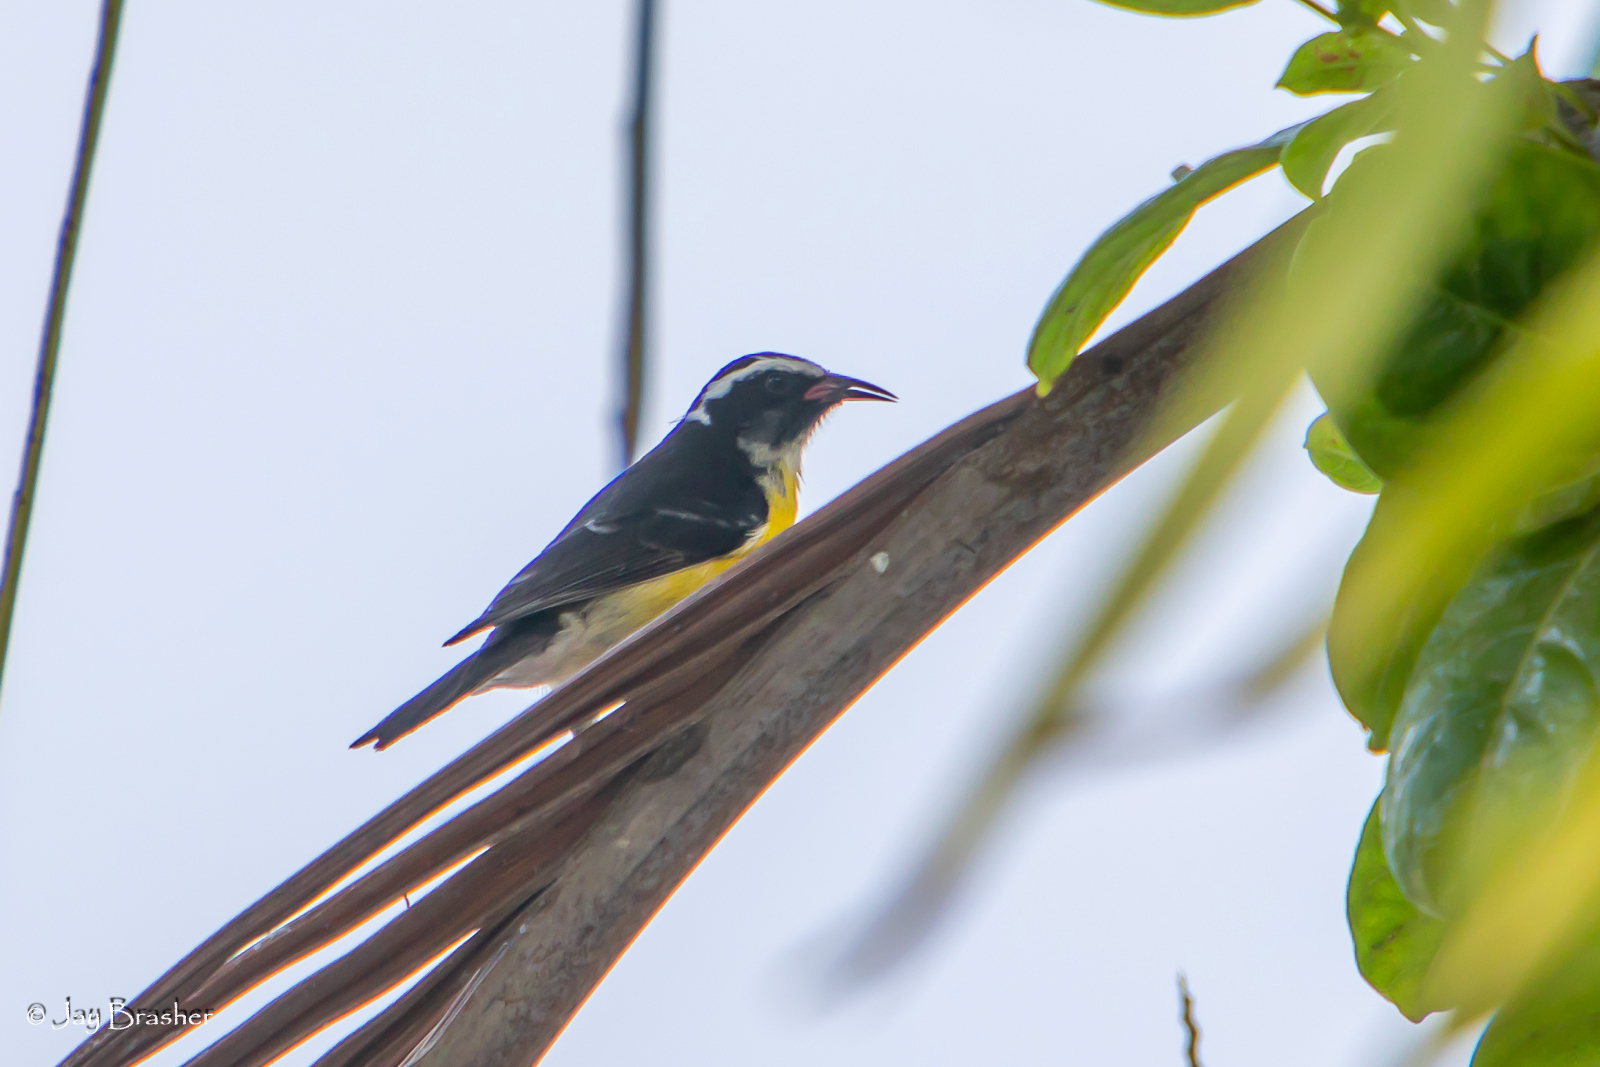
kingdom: Animalia
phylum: Chordata
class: Aves
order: Passeriformes
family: Thraupidae
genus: Coereba
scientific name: Coereba flaveola
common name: Bananaquit
